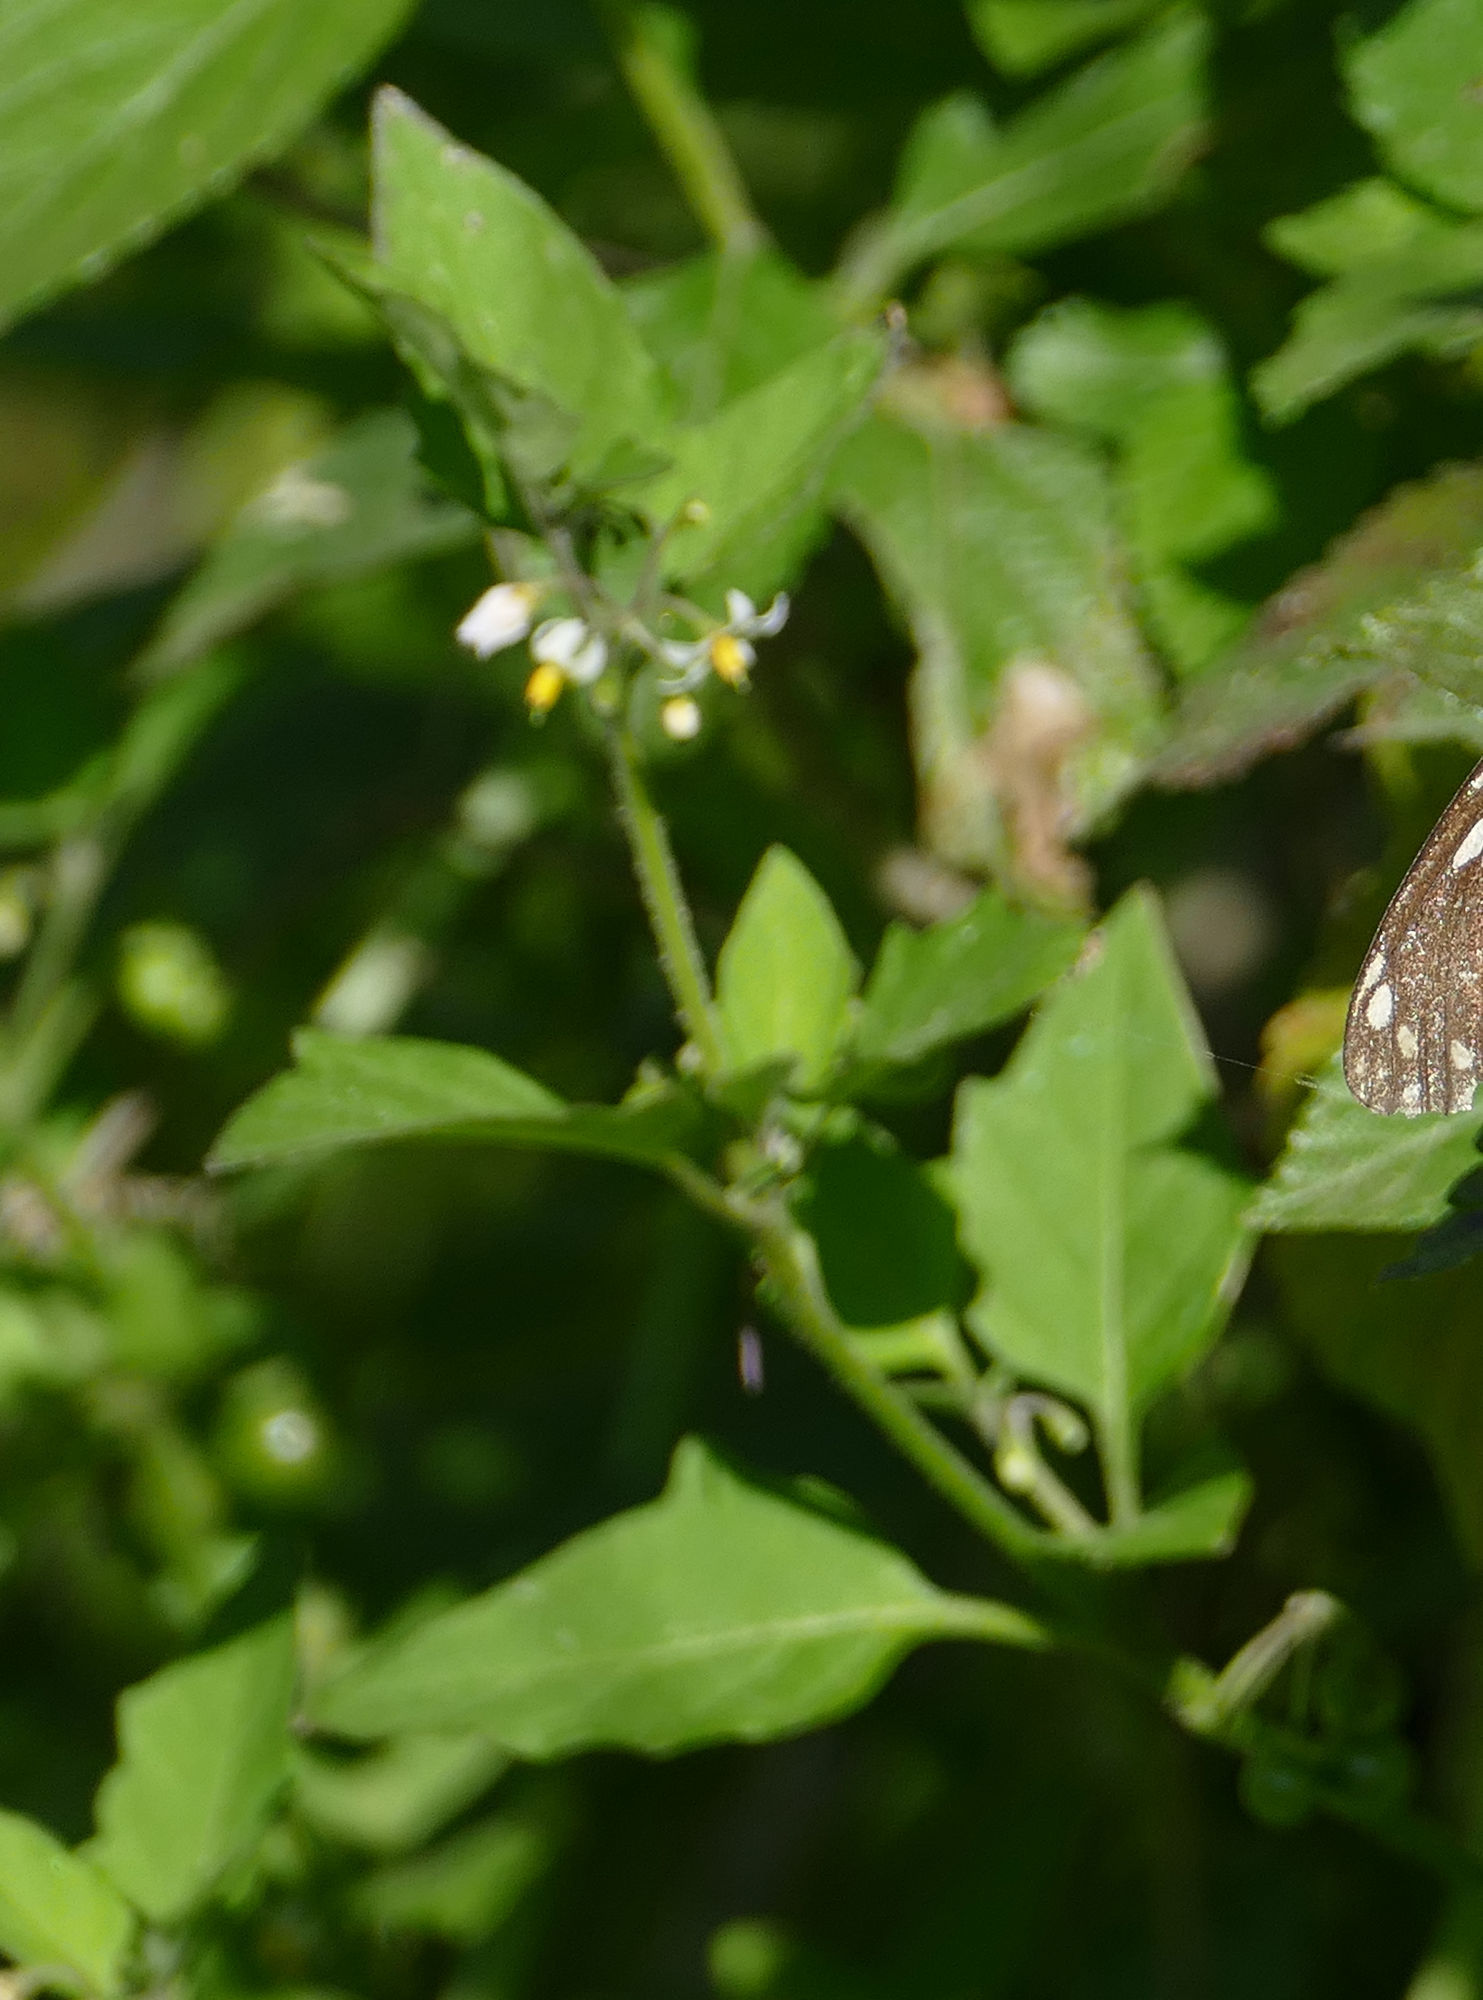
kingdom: Plantae
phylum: Tracheophyta
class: Magnoliopsida
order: Solanales
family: Solanaceae
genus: Solanum
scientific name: Solanum
